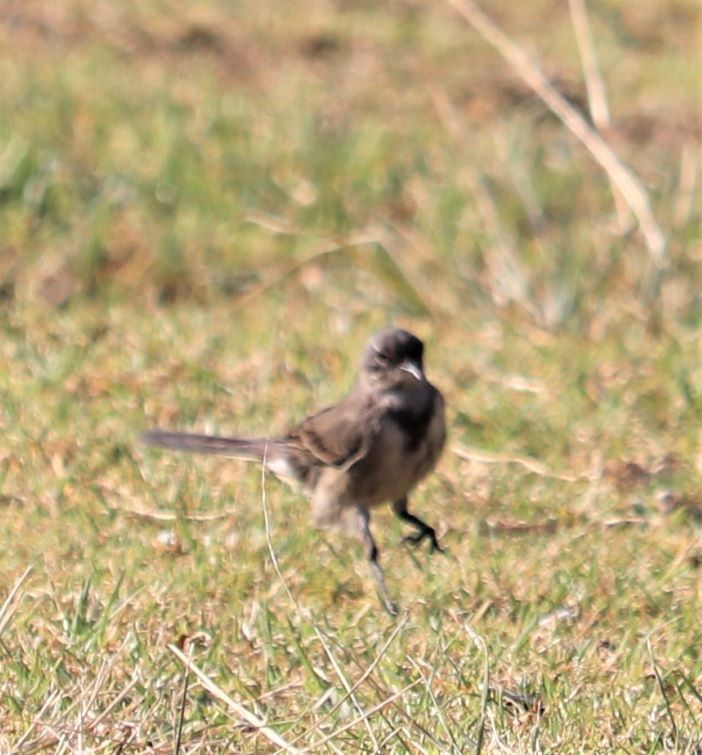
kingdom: Animalia
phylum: Chordata
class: Aves
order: Passeriformes
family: Motacillidae
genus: Motacilla
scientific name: Motacilla capensis
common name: Cape wagtail
